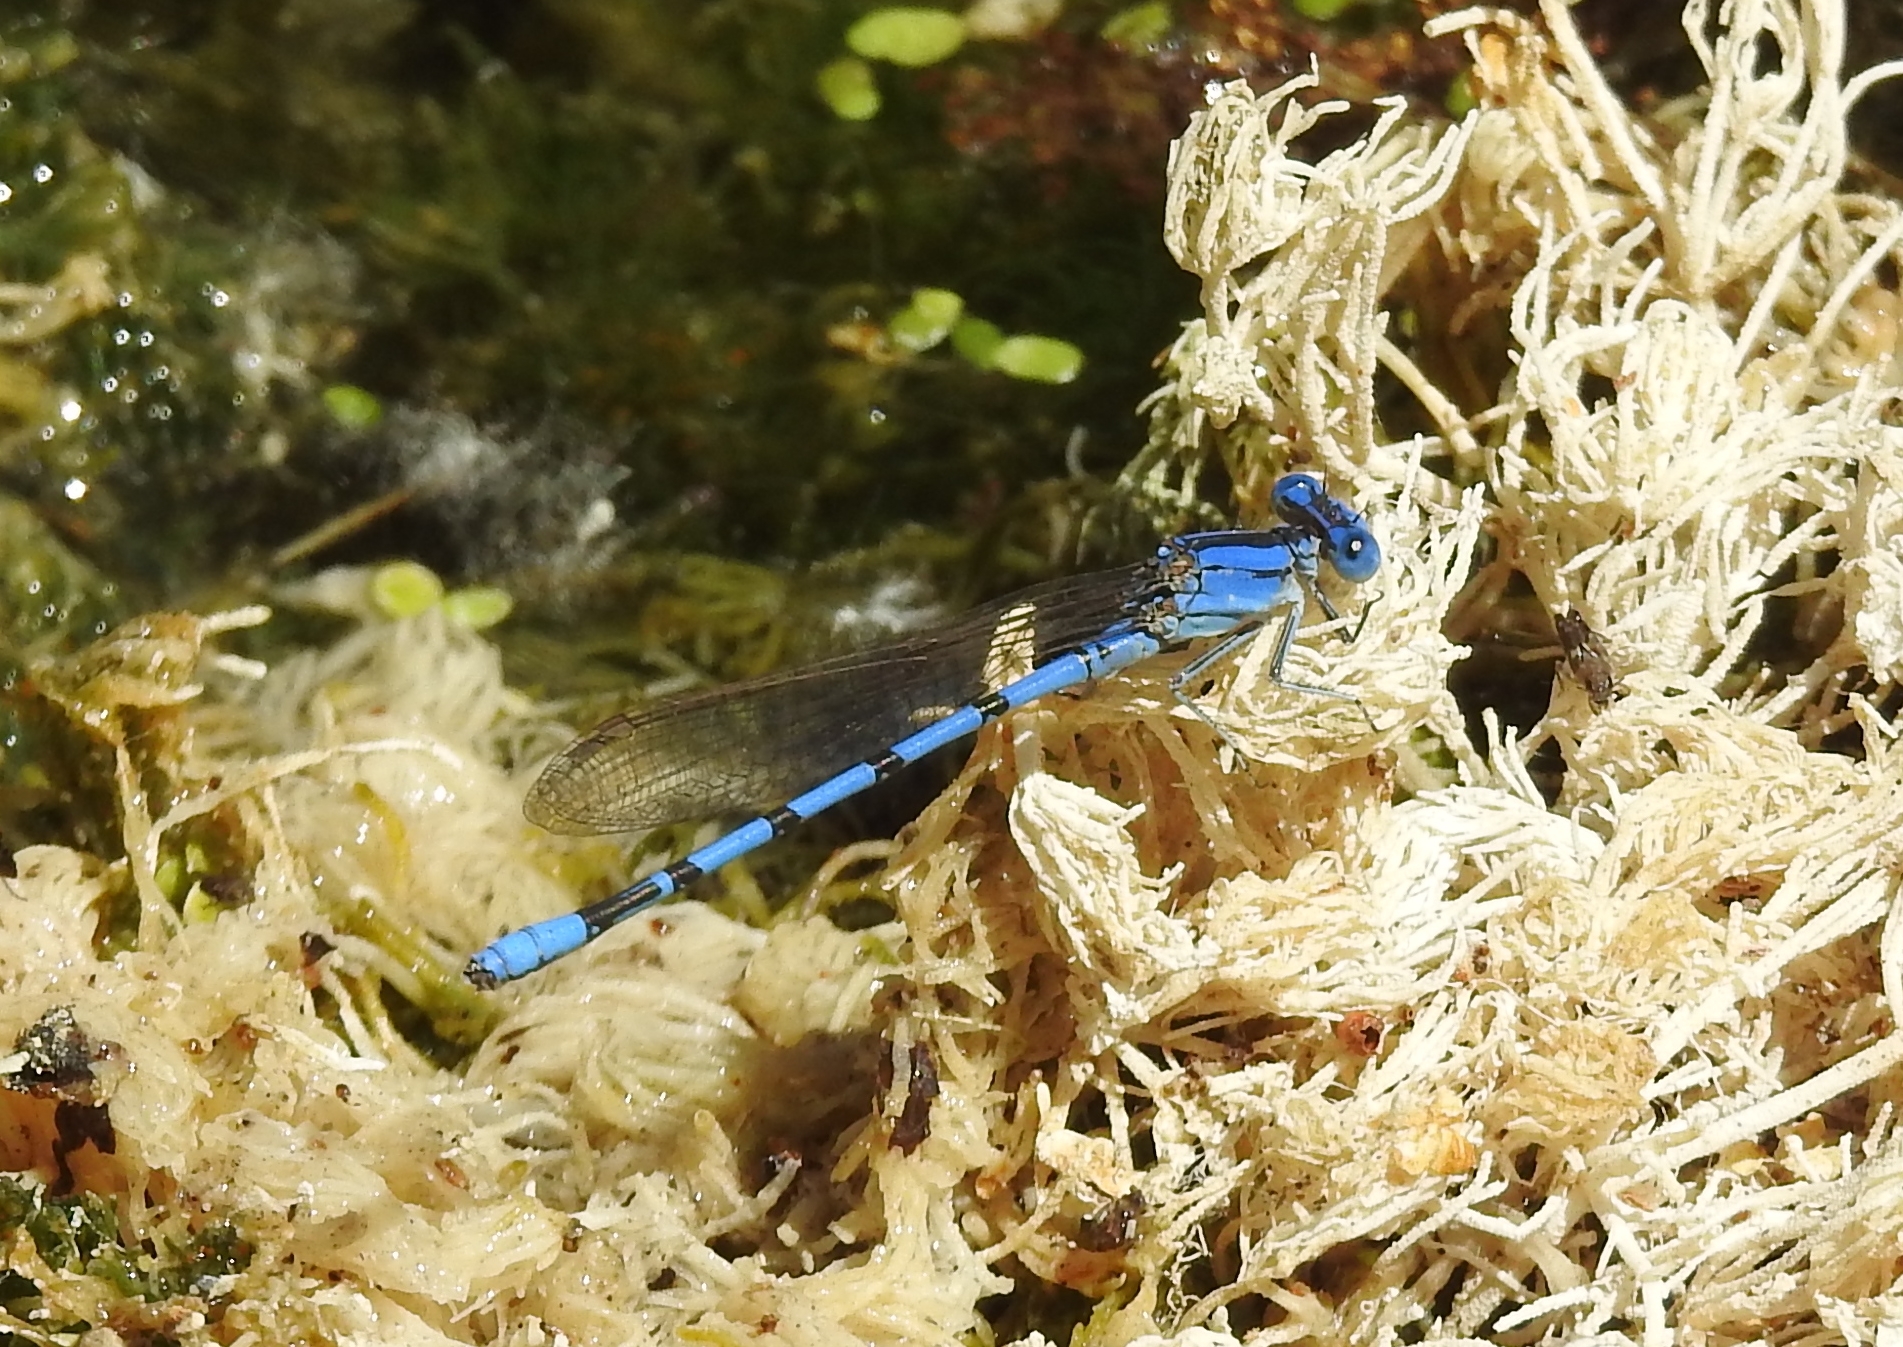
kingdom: Animalia
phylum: Arthropoda
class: Insecta
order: Odonata
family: Coenagrionidae
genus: Argia
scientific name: Argia nahuana
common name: Aztec dancer
